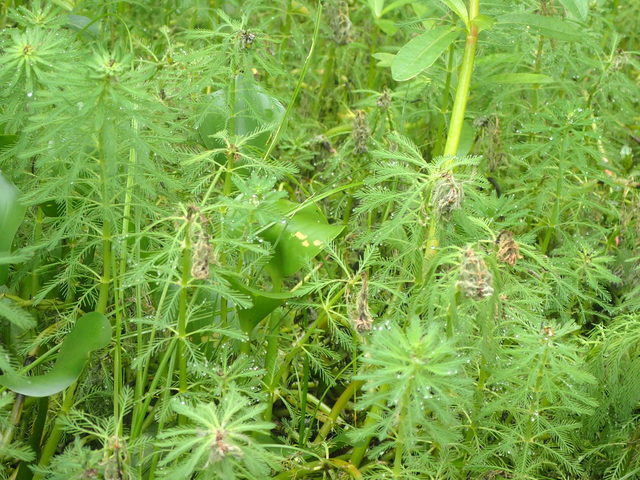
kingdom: Plantae
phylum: Tracheophyta
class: Magnoliopsida
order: Saxifragales
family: Haloragaceae
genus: Myriophyllum
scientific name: Myriophyllum aquaticum
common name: Parrot's feather
